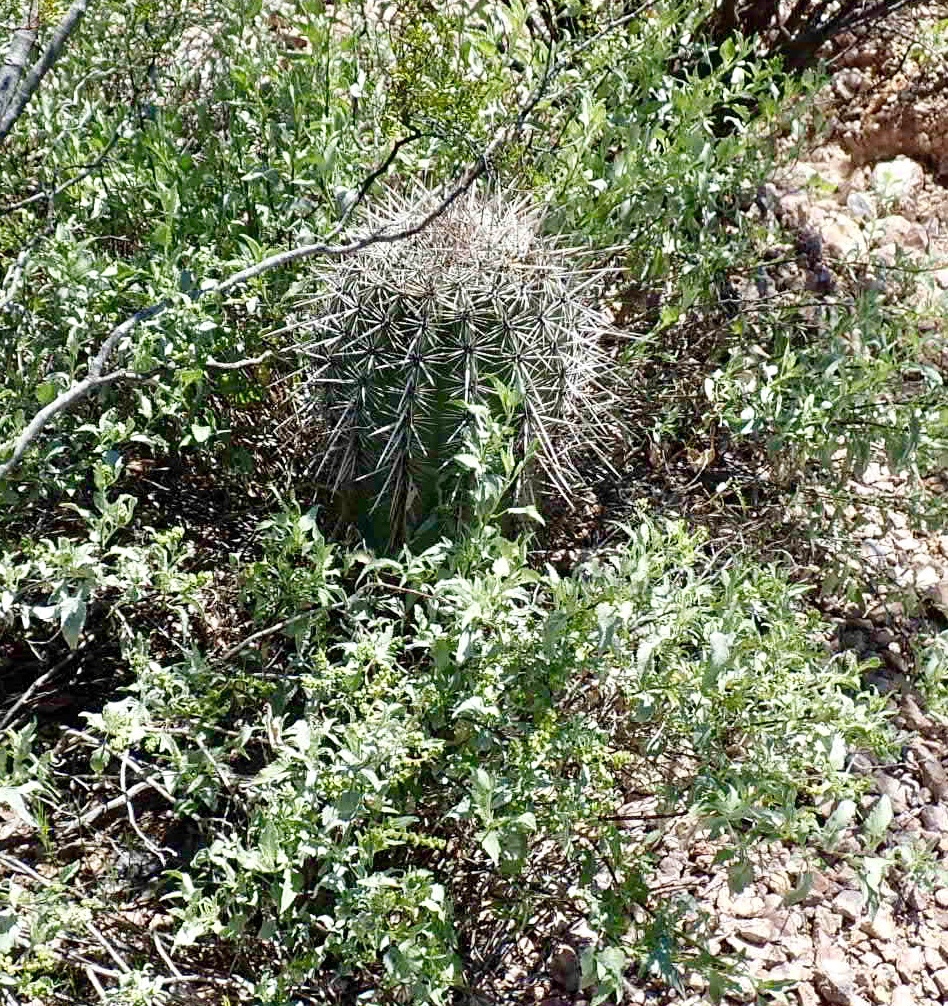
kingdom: Plantae
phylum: Tracheophyta
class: Magnoliopsida
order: Caryophyllales
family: Cactaceae
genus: Carnegiea
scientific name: Carnegiea gigantea
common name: Saguaro
